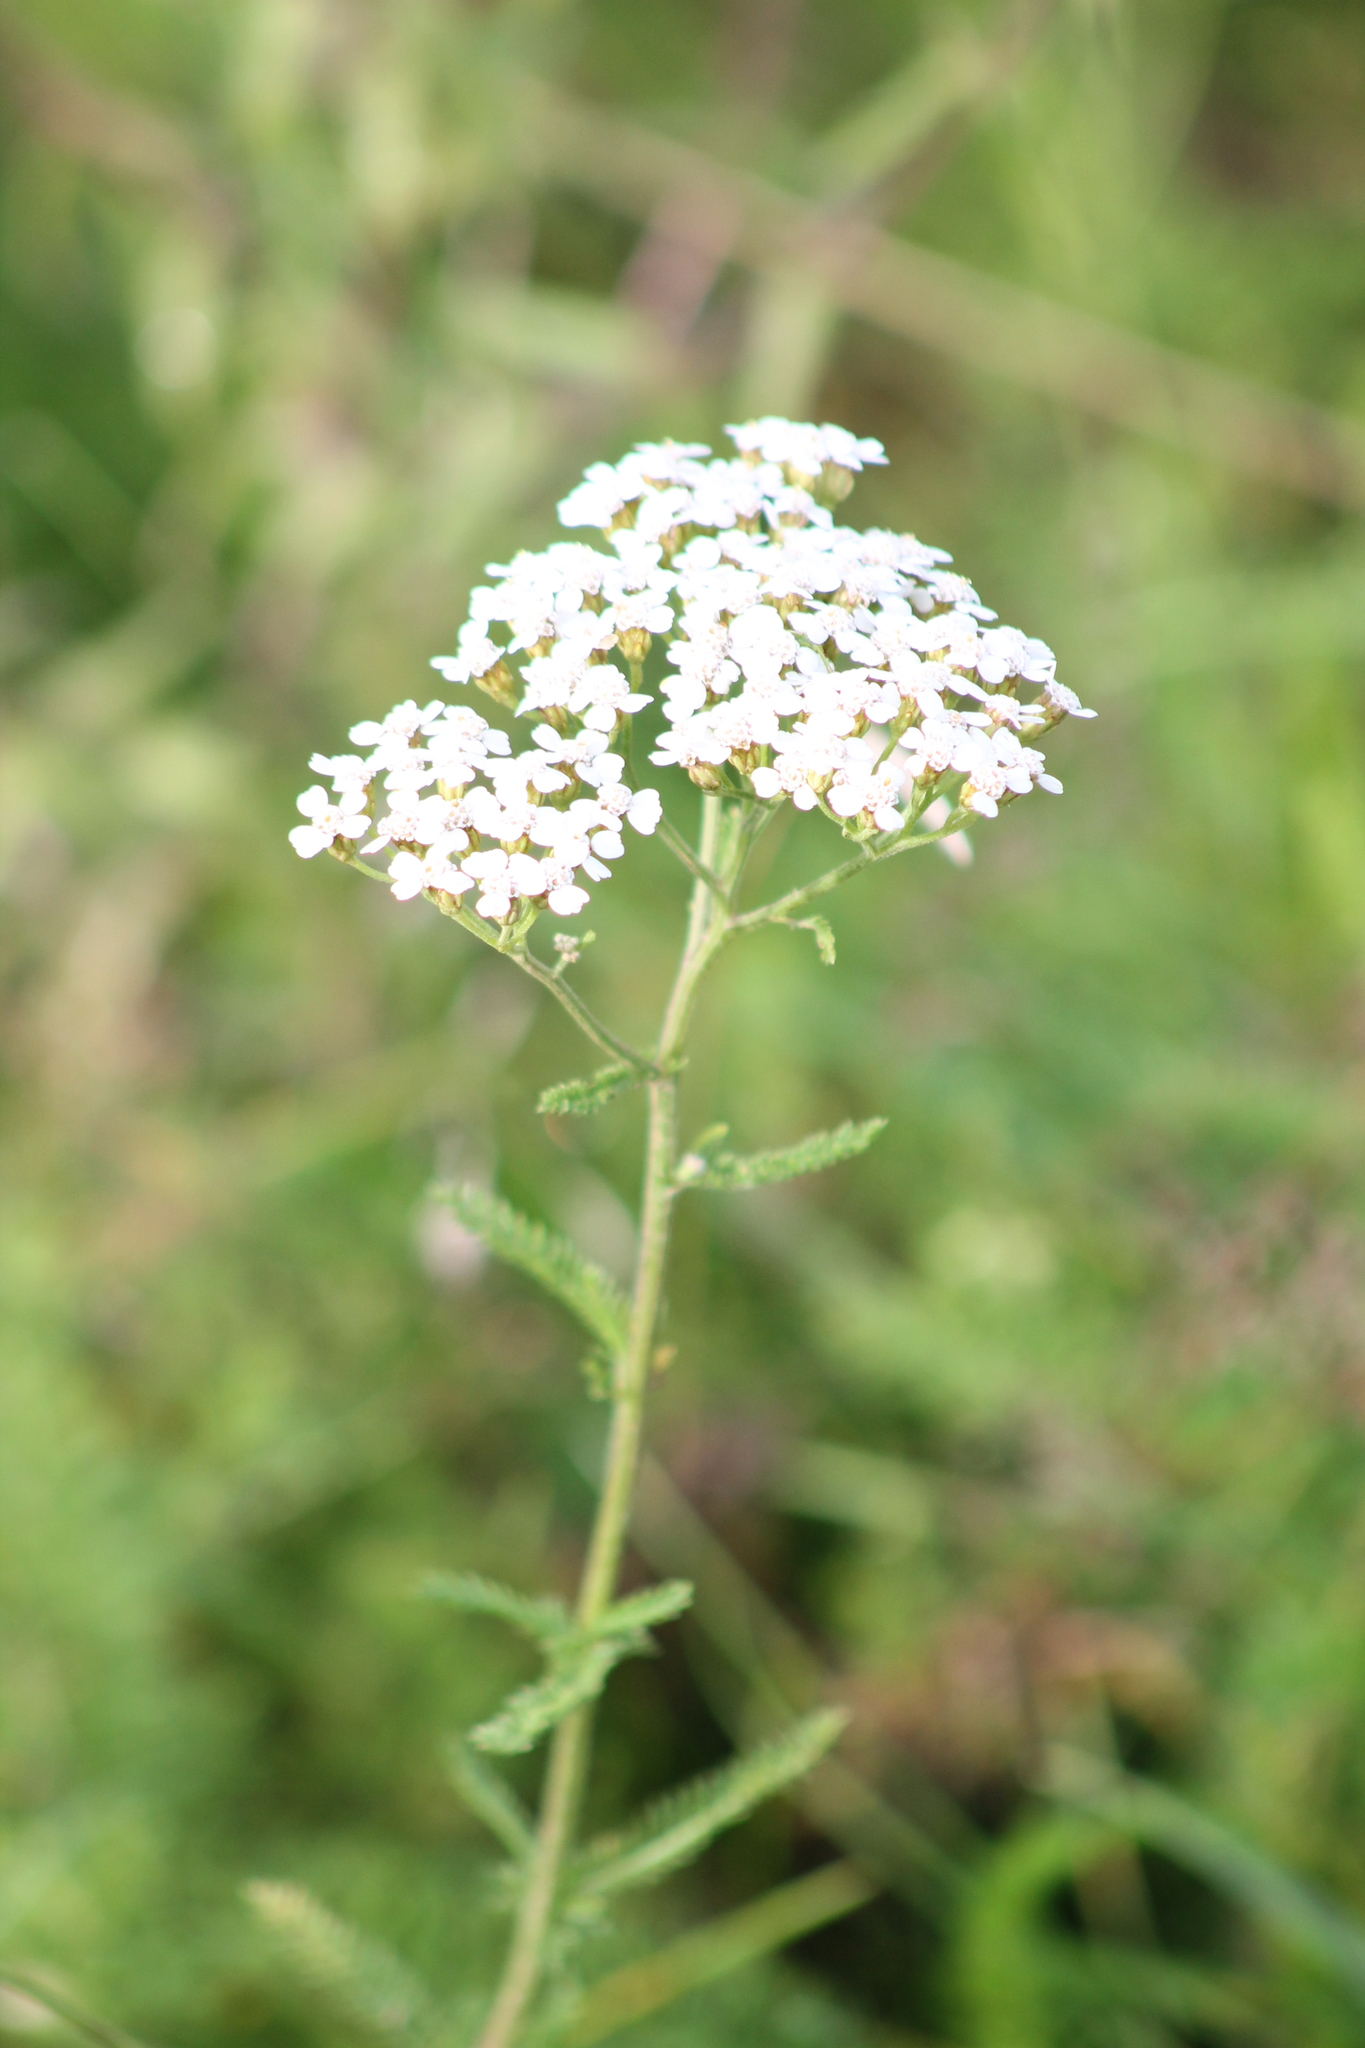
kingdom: Plantae
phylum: Tracheophyta
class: Magnoliopsida
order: Asterales
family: Asteraceae
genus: Achillea
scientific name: Achillea millefolium
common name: Yarrow
